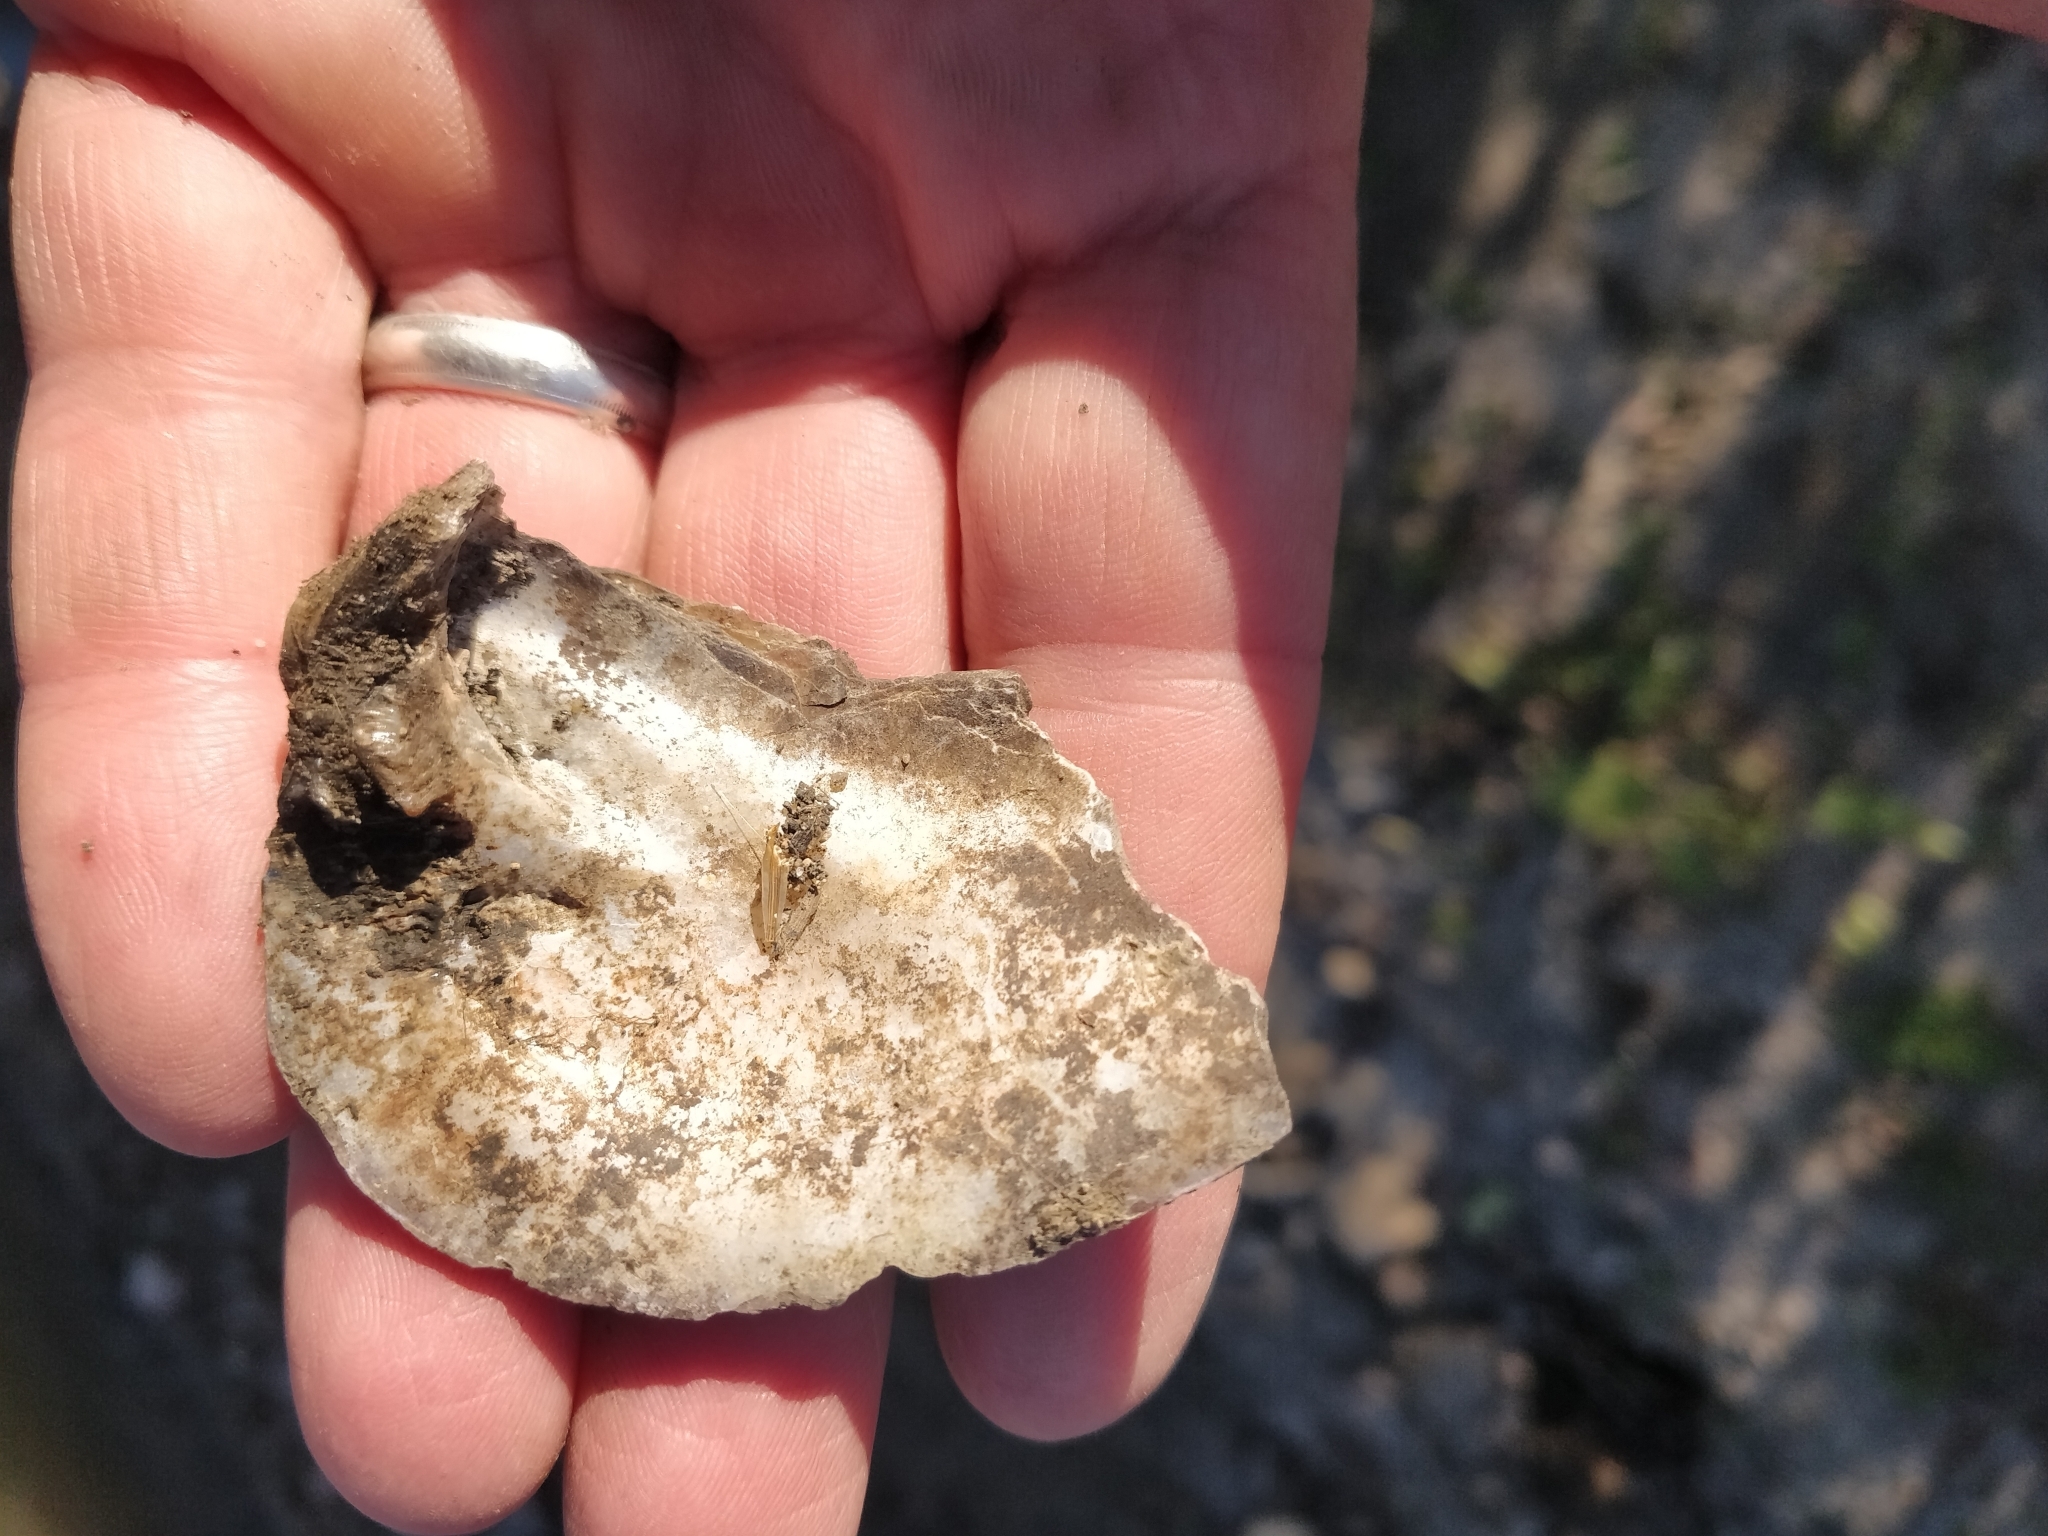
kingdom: Animalia
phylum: Mollusca
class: Bivalvia
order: Unionida
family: Unionidae
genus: Amblema
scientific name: Amblema plicata
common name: Threeridge
